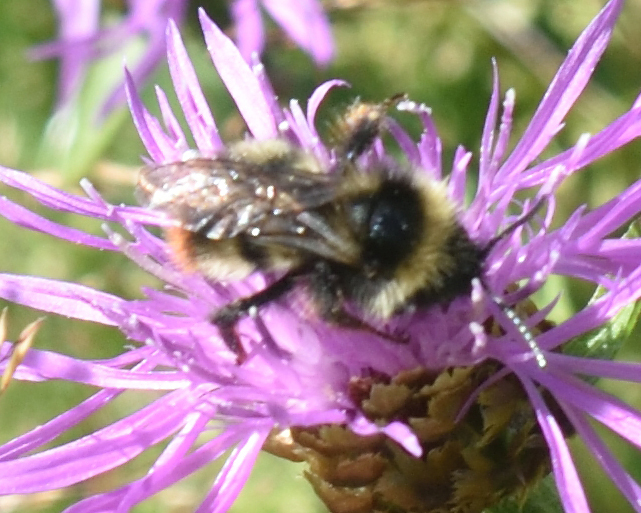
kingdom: Animalia
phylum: Arthropoda
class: Insecta
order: Hymenoptera
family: Apidae
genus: Bombus
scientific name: Bombus rupestris
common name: Hill cuckoo-bee
